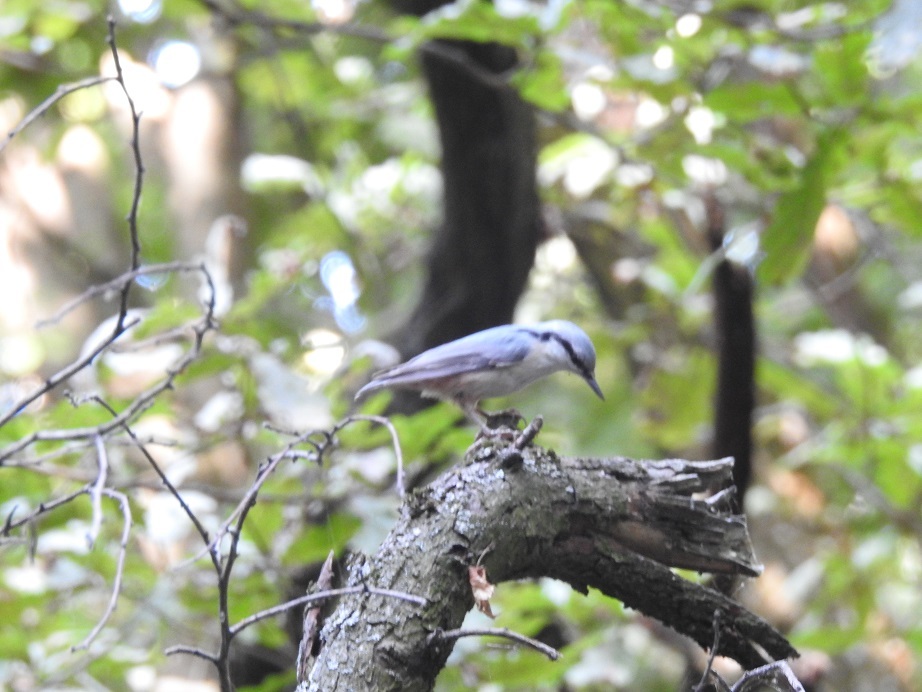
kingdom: Animalia
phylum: Chordata
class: Aves
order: Passeriformes
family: Sittidae
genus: Sitta
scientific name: Sitta europaea
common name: Eurasian nuthatch
